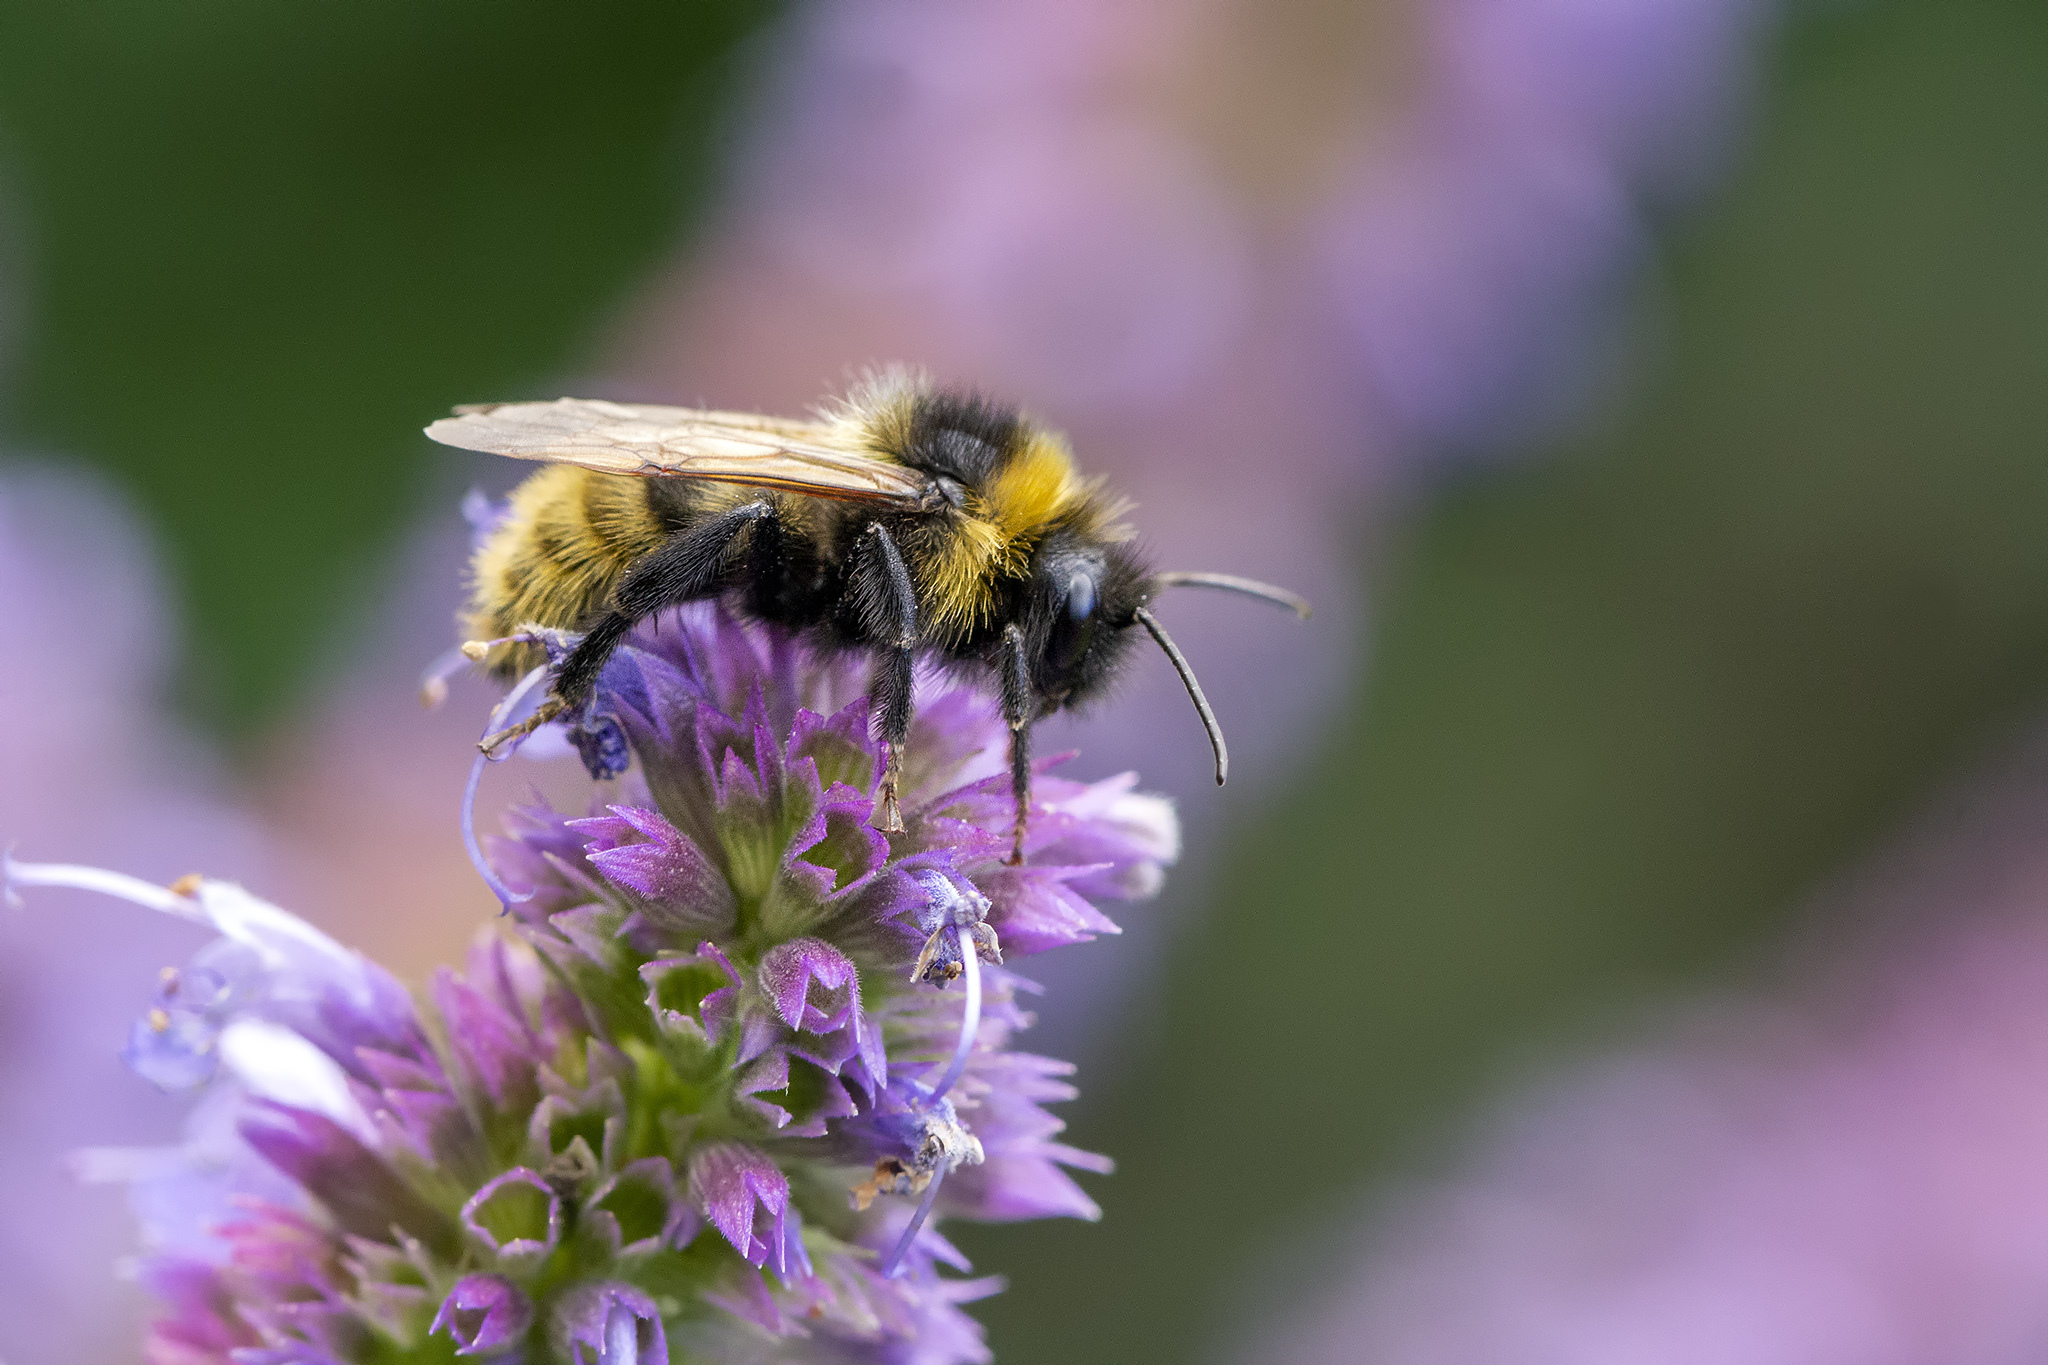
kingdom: Animalia
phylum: Arthropoda
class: Insecta
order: Hymenoptera
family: Apidae
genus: Bombus
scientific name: Bombus campestris
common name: Field cuckoo-bee
